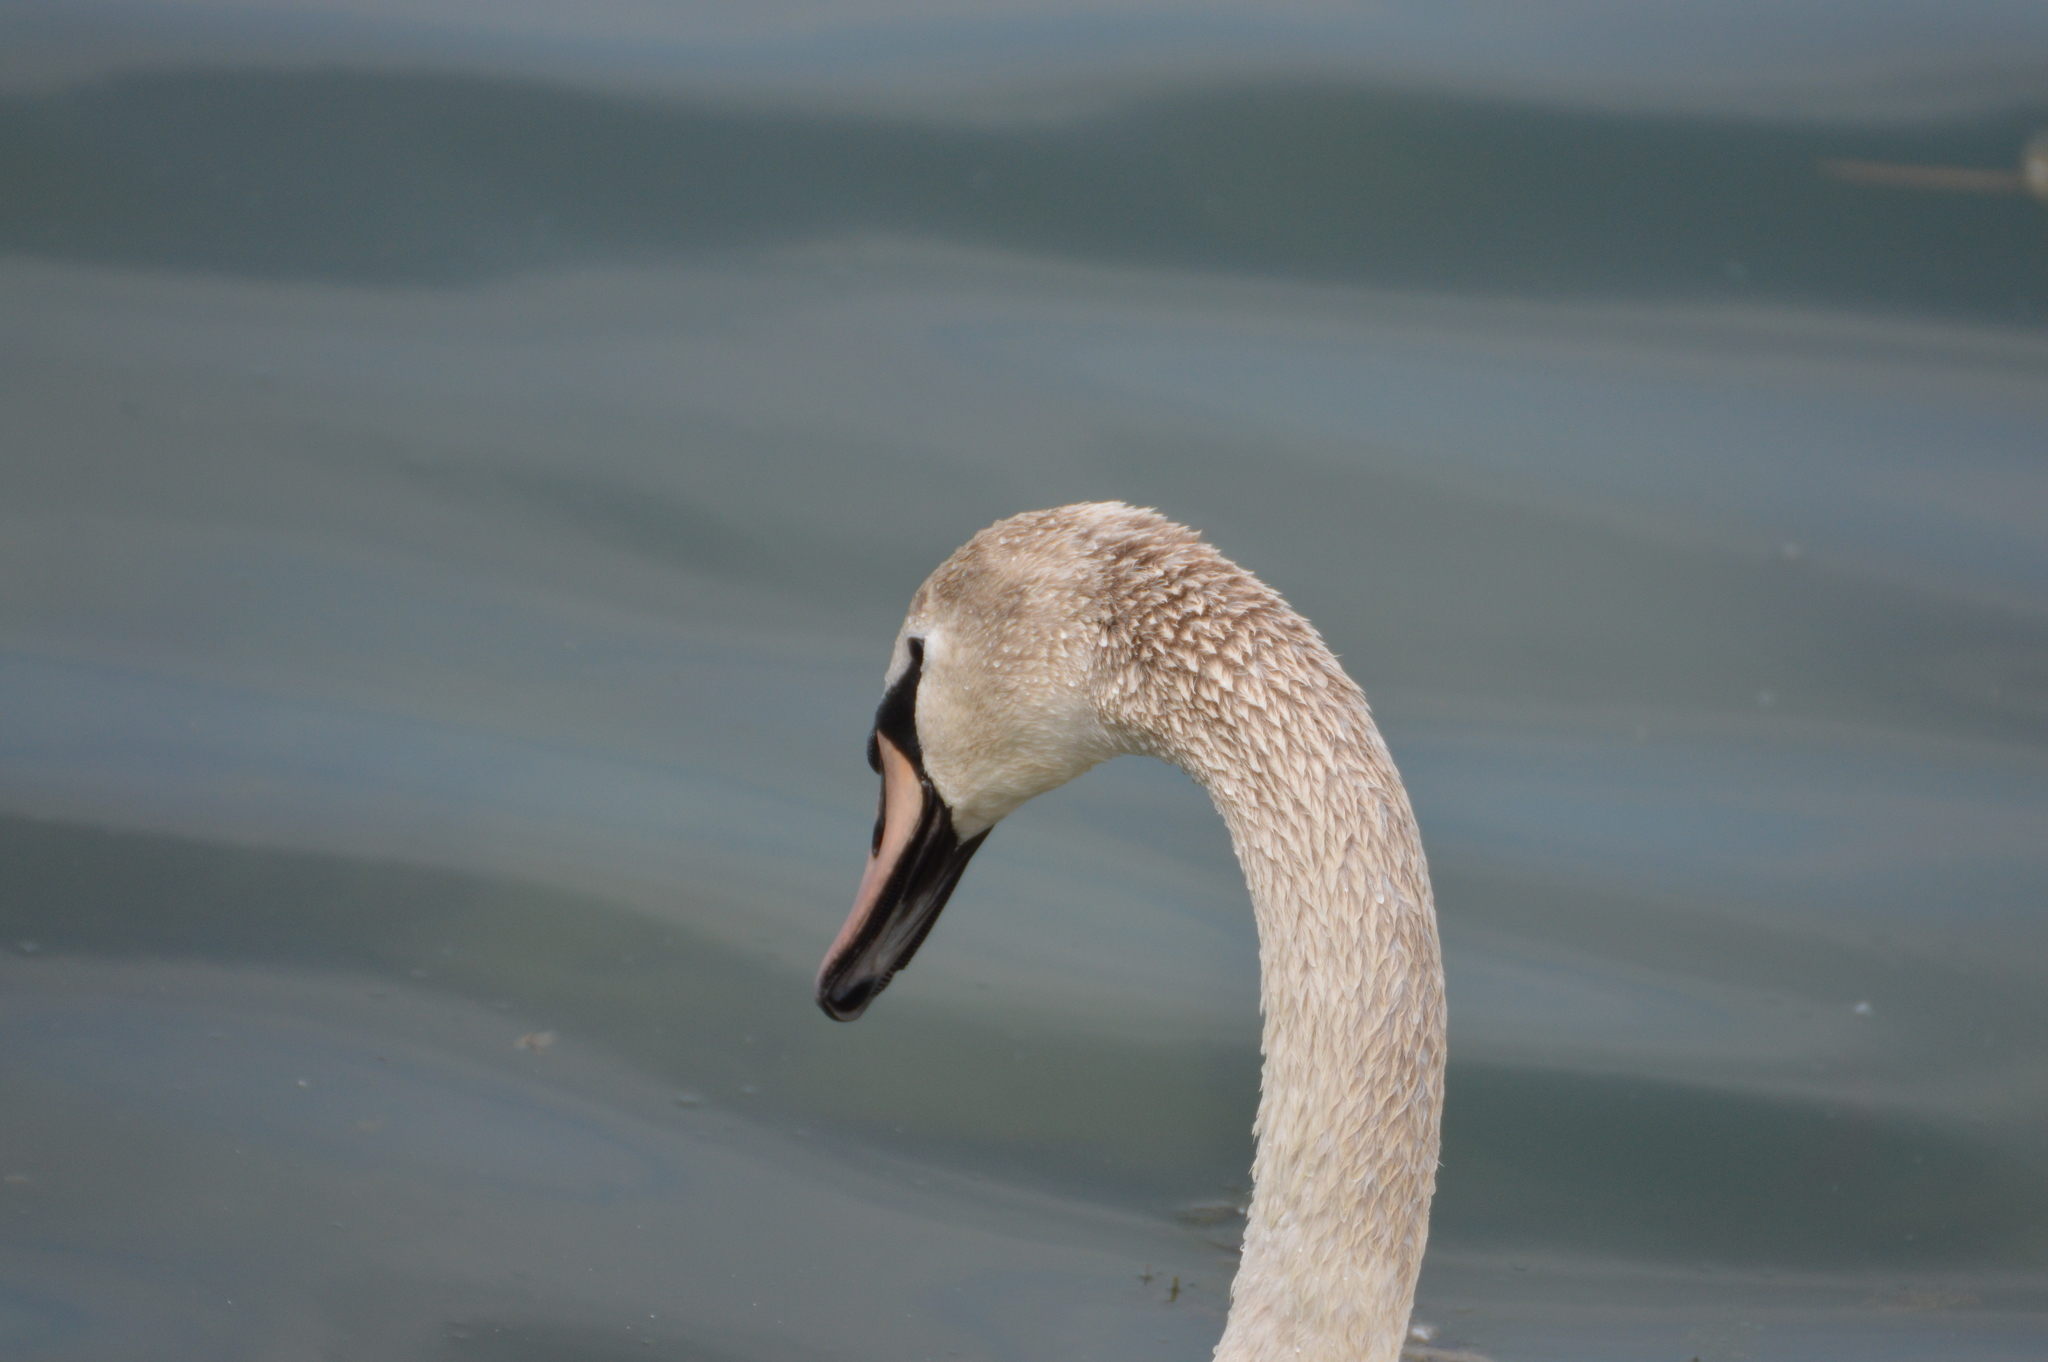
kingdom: Animalia
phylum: Chordata
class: Aves
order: Anseriformes
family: Anatidae
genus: Cygnus
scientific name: Cygnus olor
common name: Mute swan
